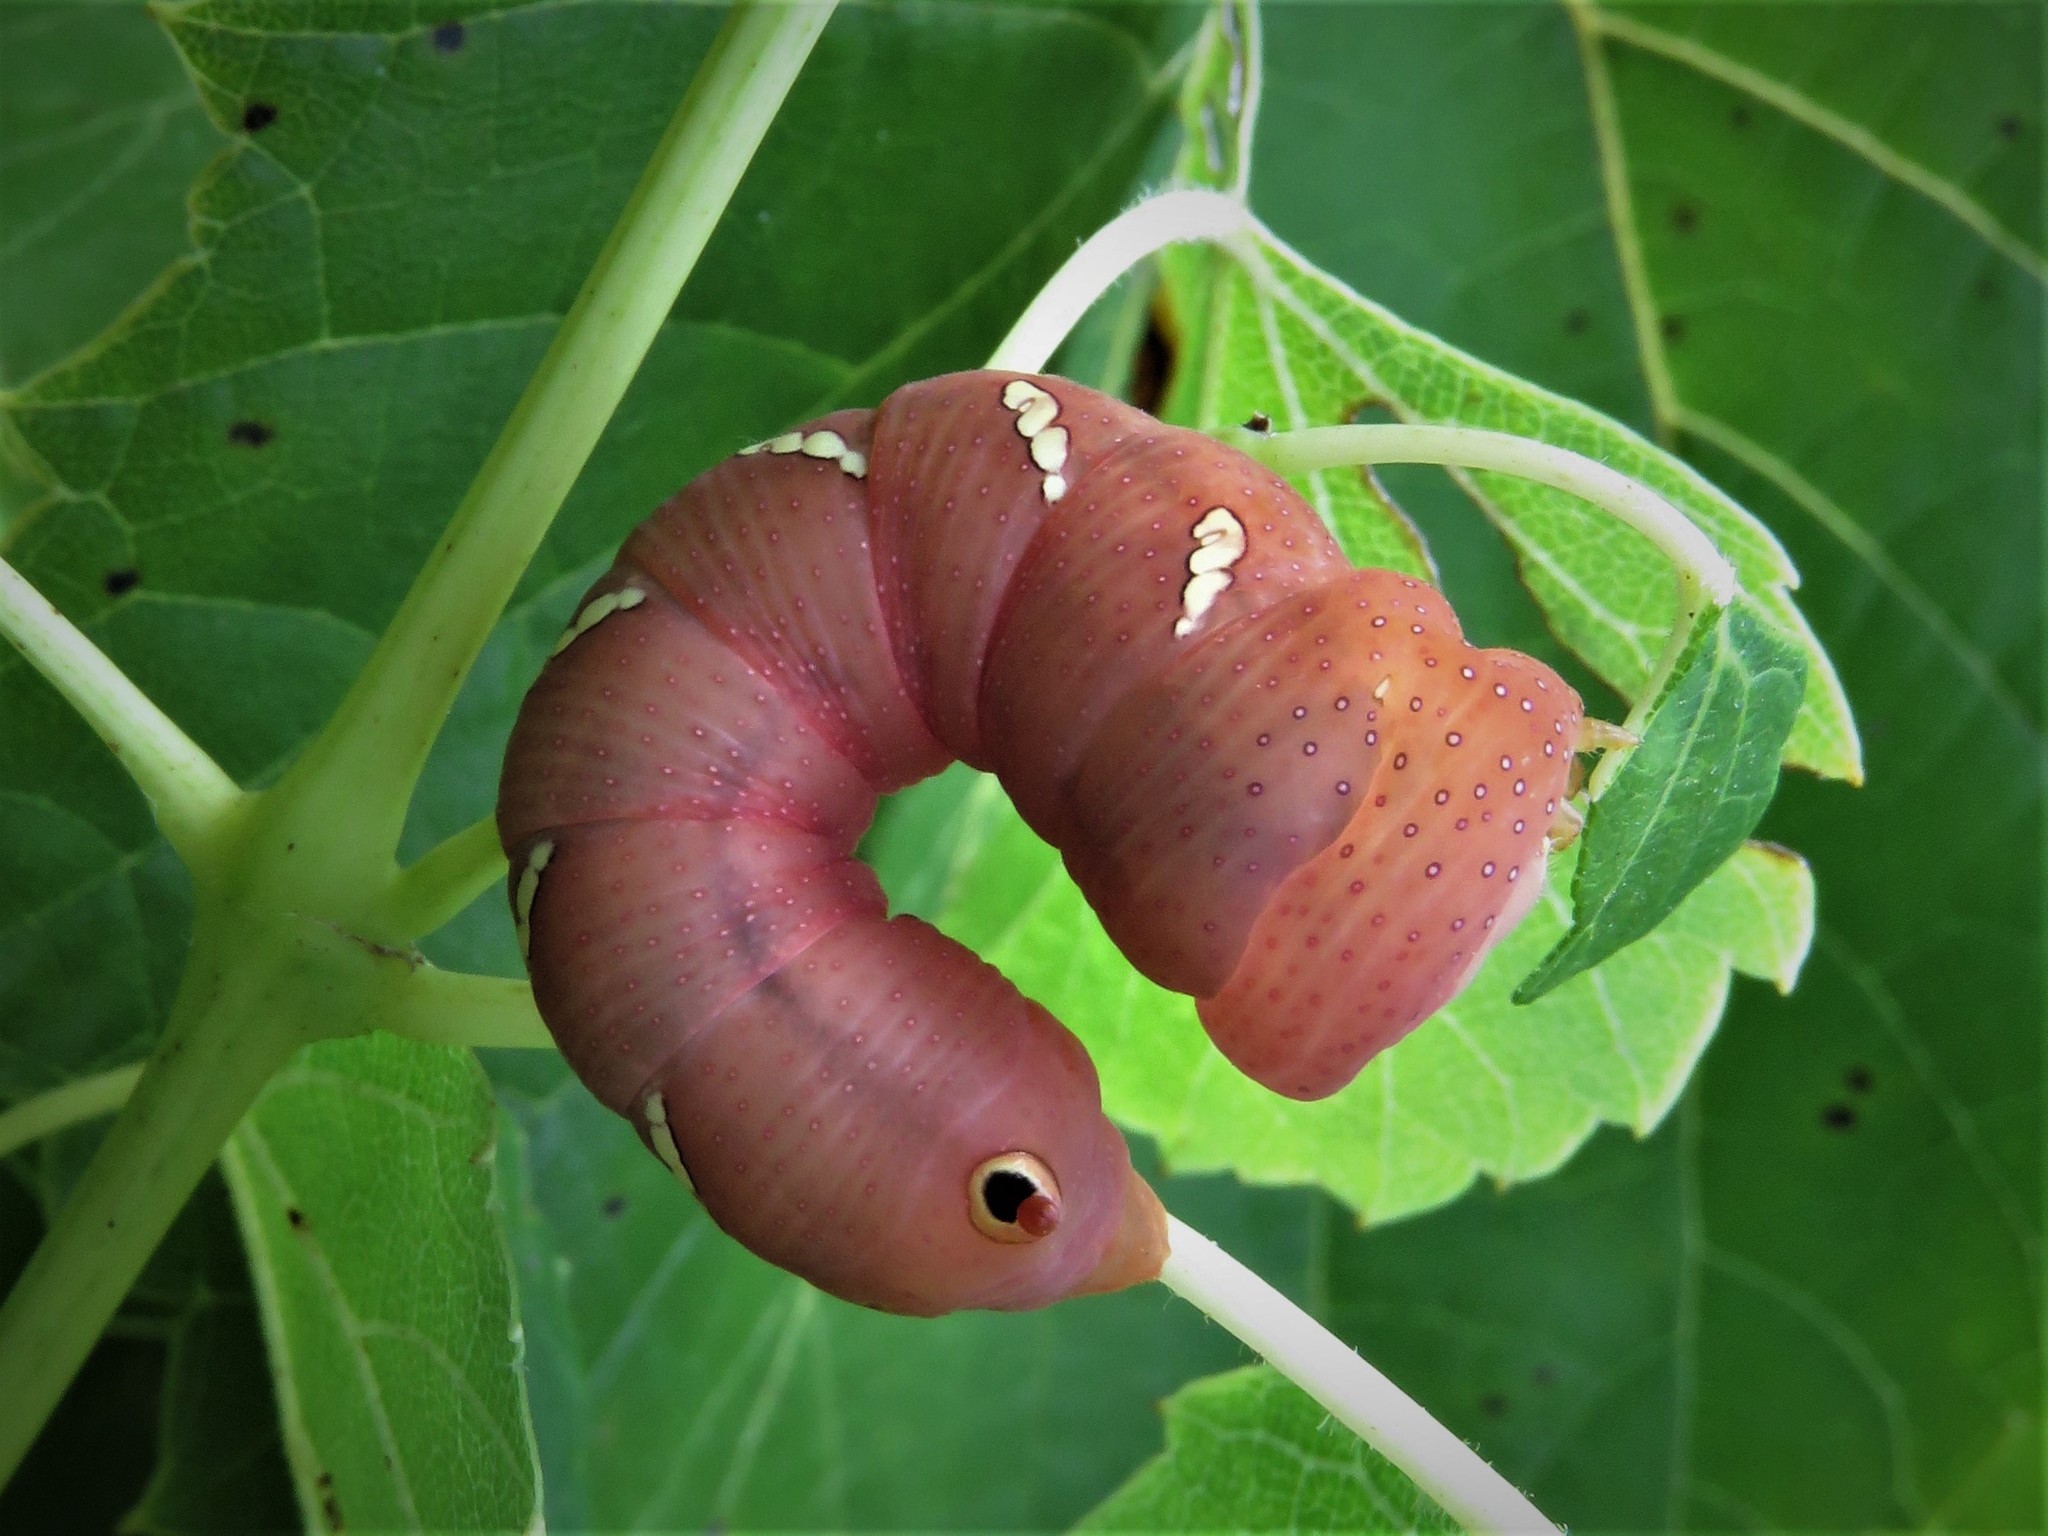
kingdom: Animalia
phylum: Arthropoda
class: Insecta
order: Lepidoptera
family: Sphingidae
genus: Eumorpha
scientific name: Eumorpha achemon
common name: Achemon sphinx
